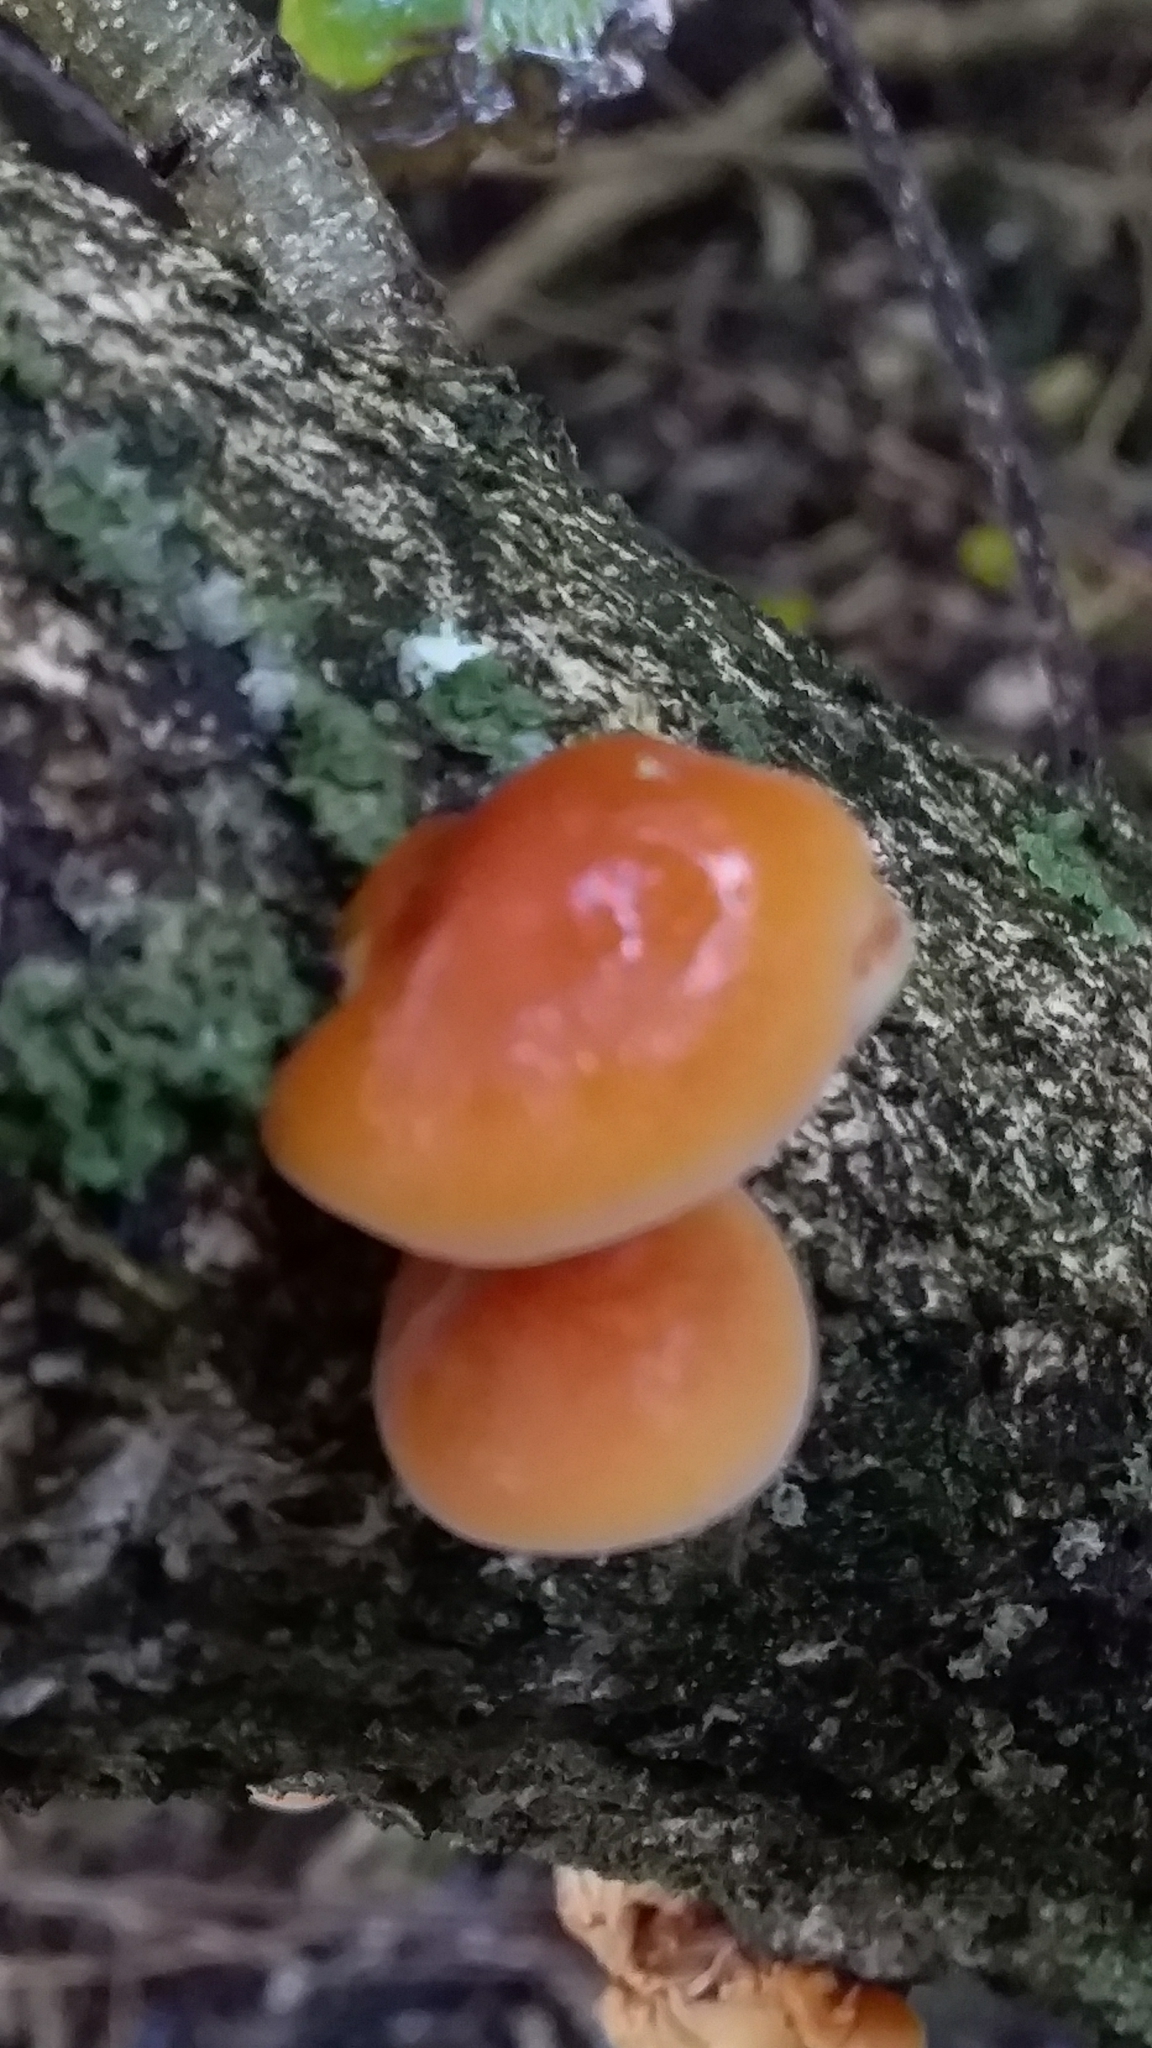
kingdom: Fungi
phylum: Basidiomycota
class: Agaricomycetes
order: Agaricales
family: Physalacriaceae
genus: Flammulina
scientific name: Flammulina velutipes
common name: Velvet shank
